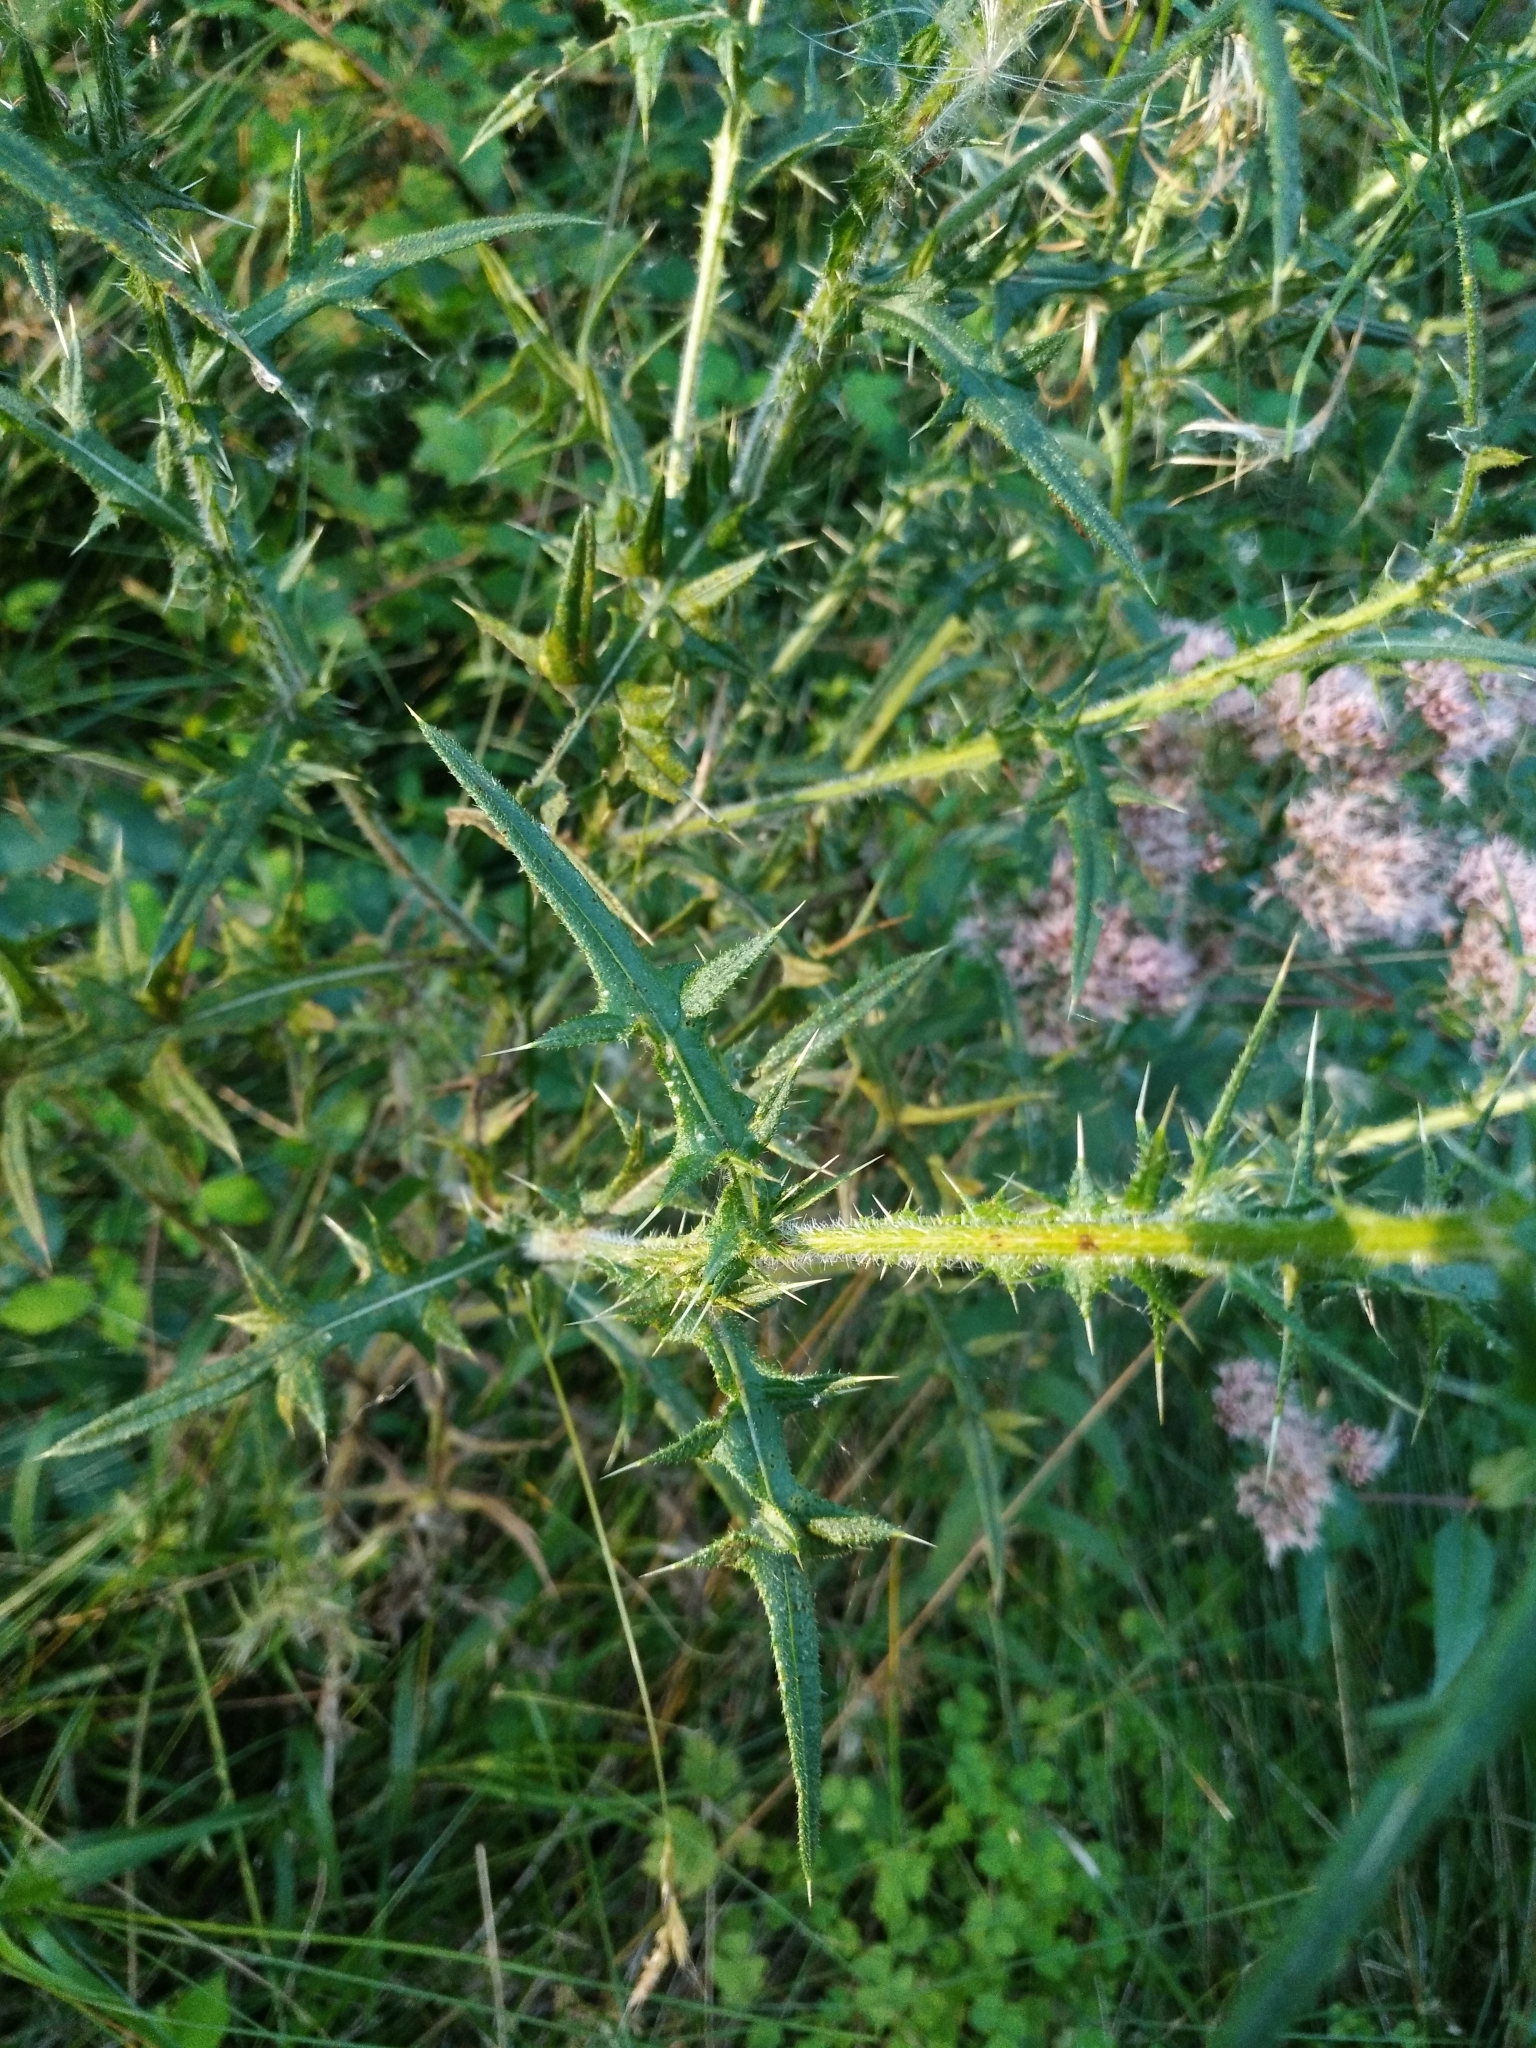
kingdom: Plantae
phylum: Tracheophyta
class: Magnoliopsida
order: Asterales
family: Asteraceae
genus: Cirsium
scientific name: Cirsium vulgare
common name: Bull thistle
